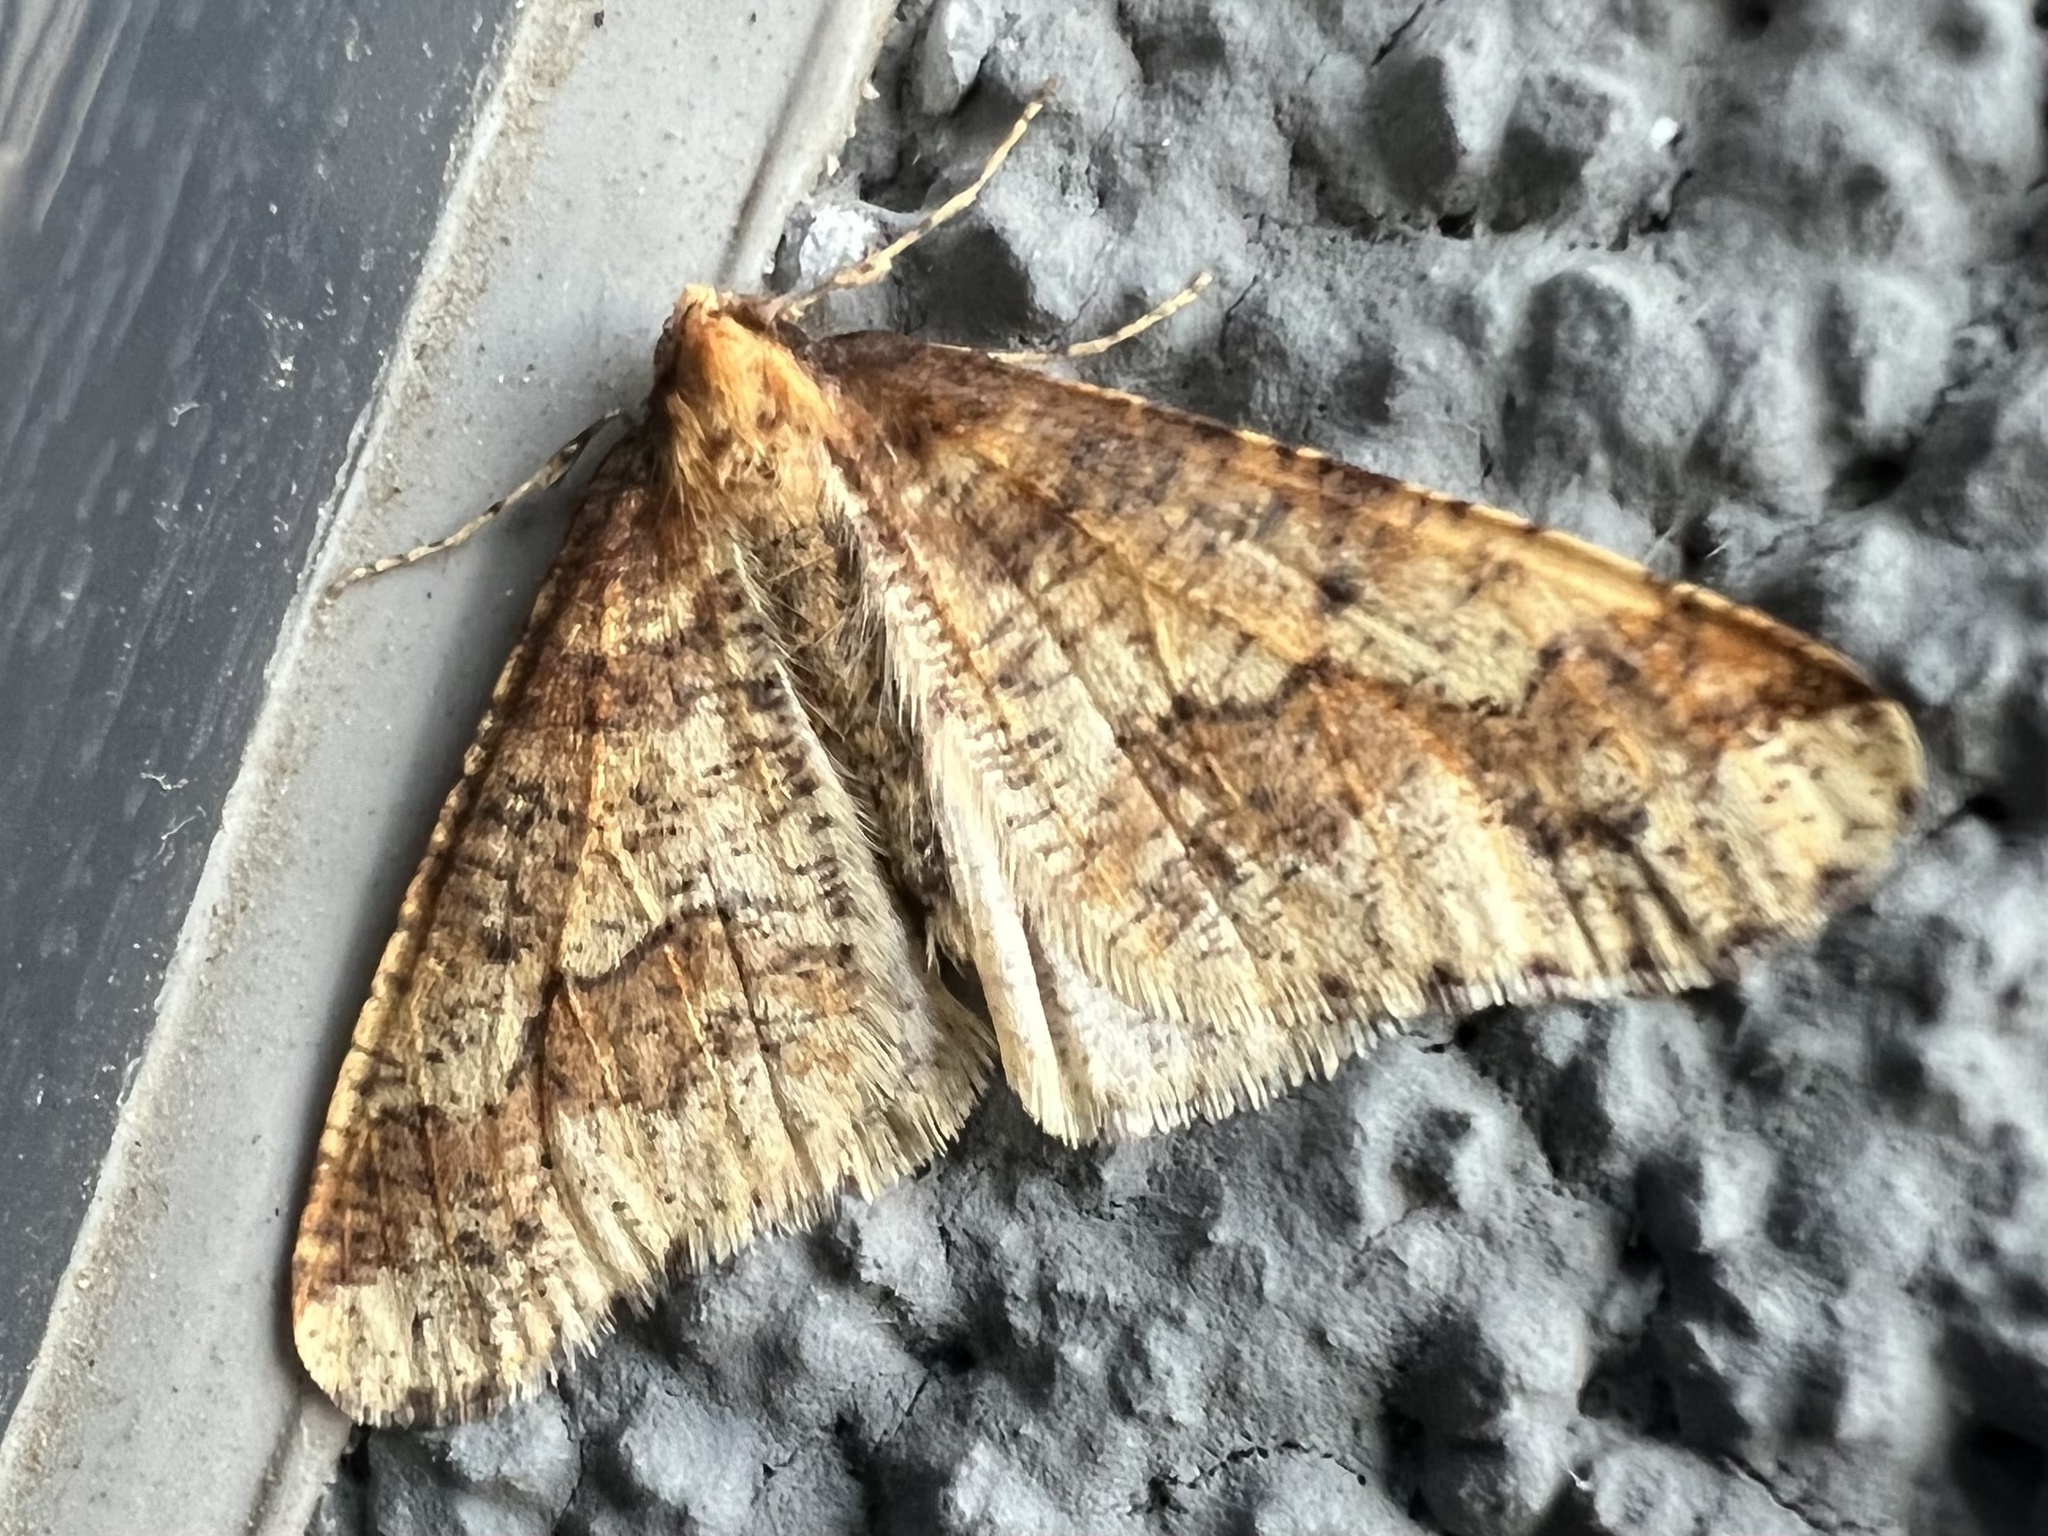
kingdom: Animalia
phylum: Arthropoda
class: Insecta
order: Lepidoptera
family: Geometridae
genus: Erannis
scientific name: Erannis defoliaria
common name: Mottled umber
